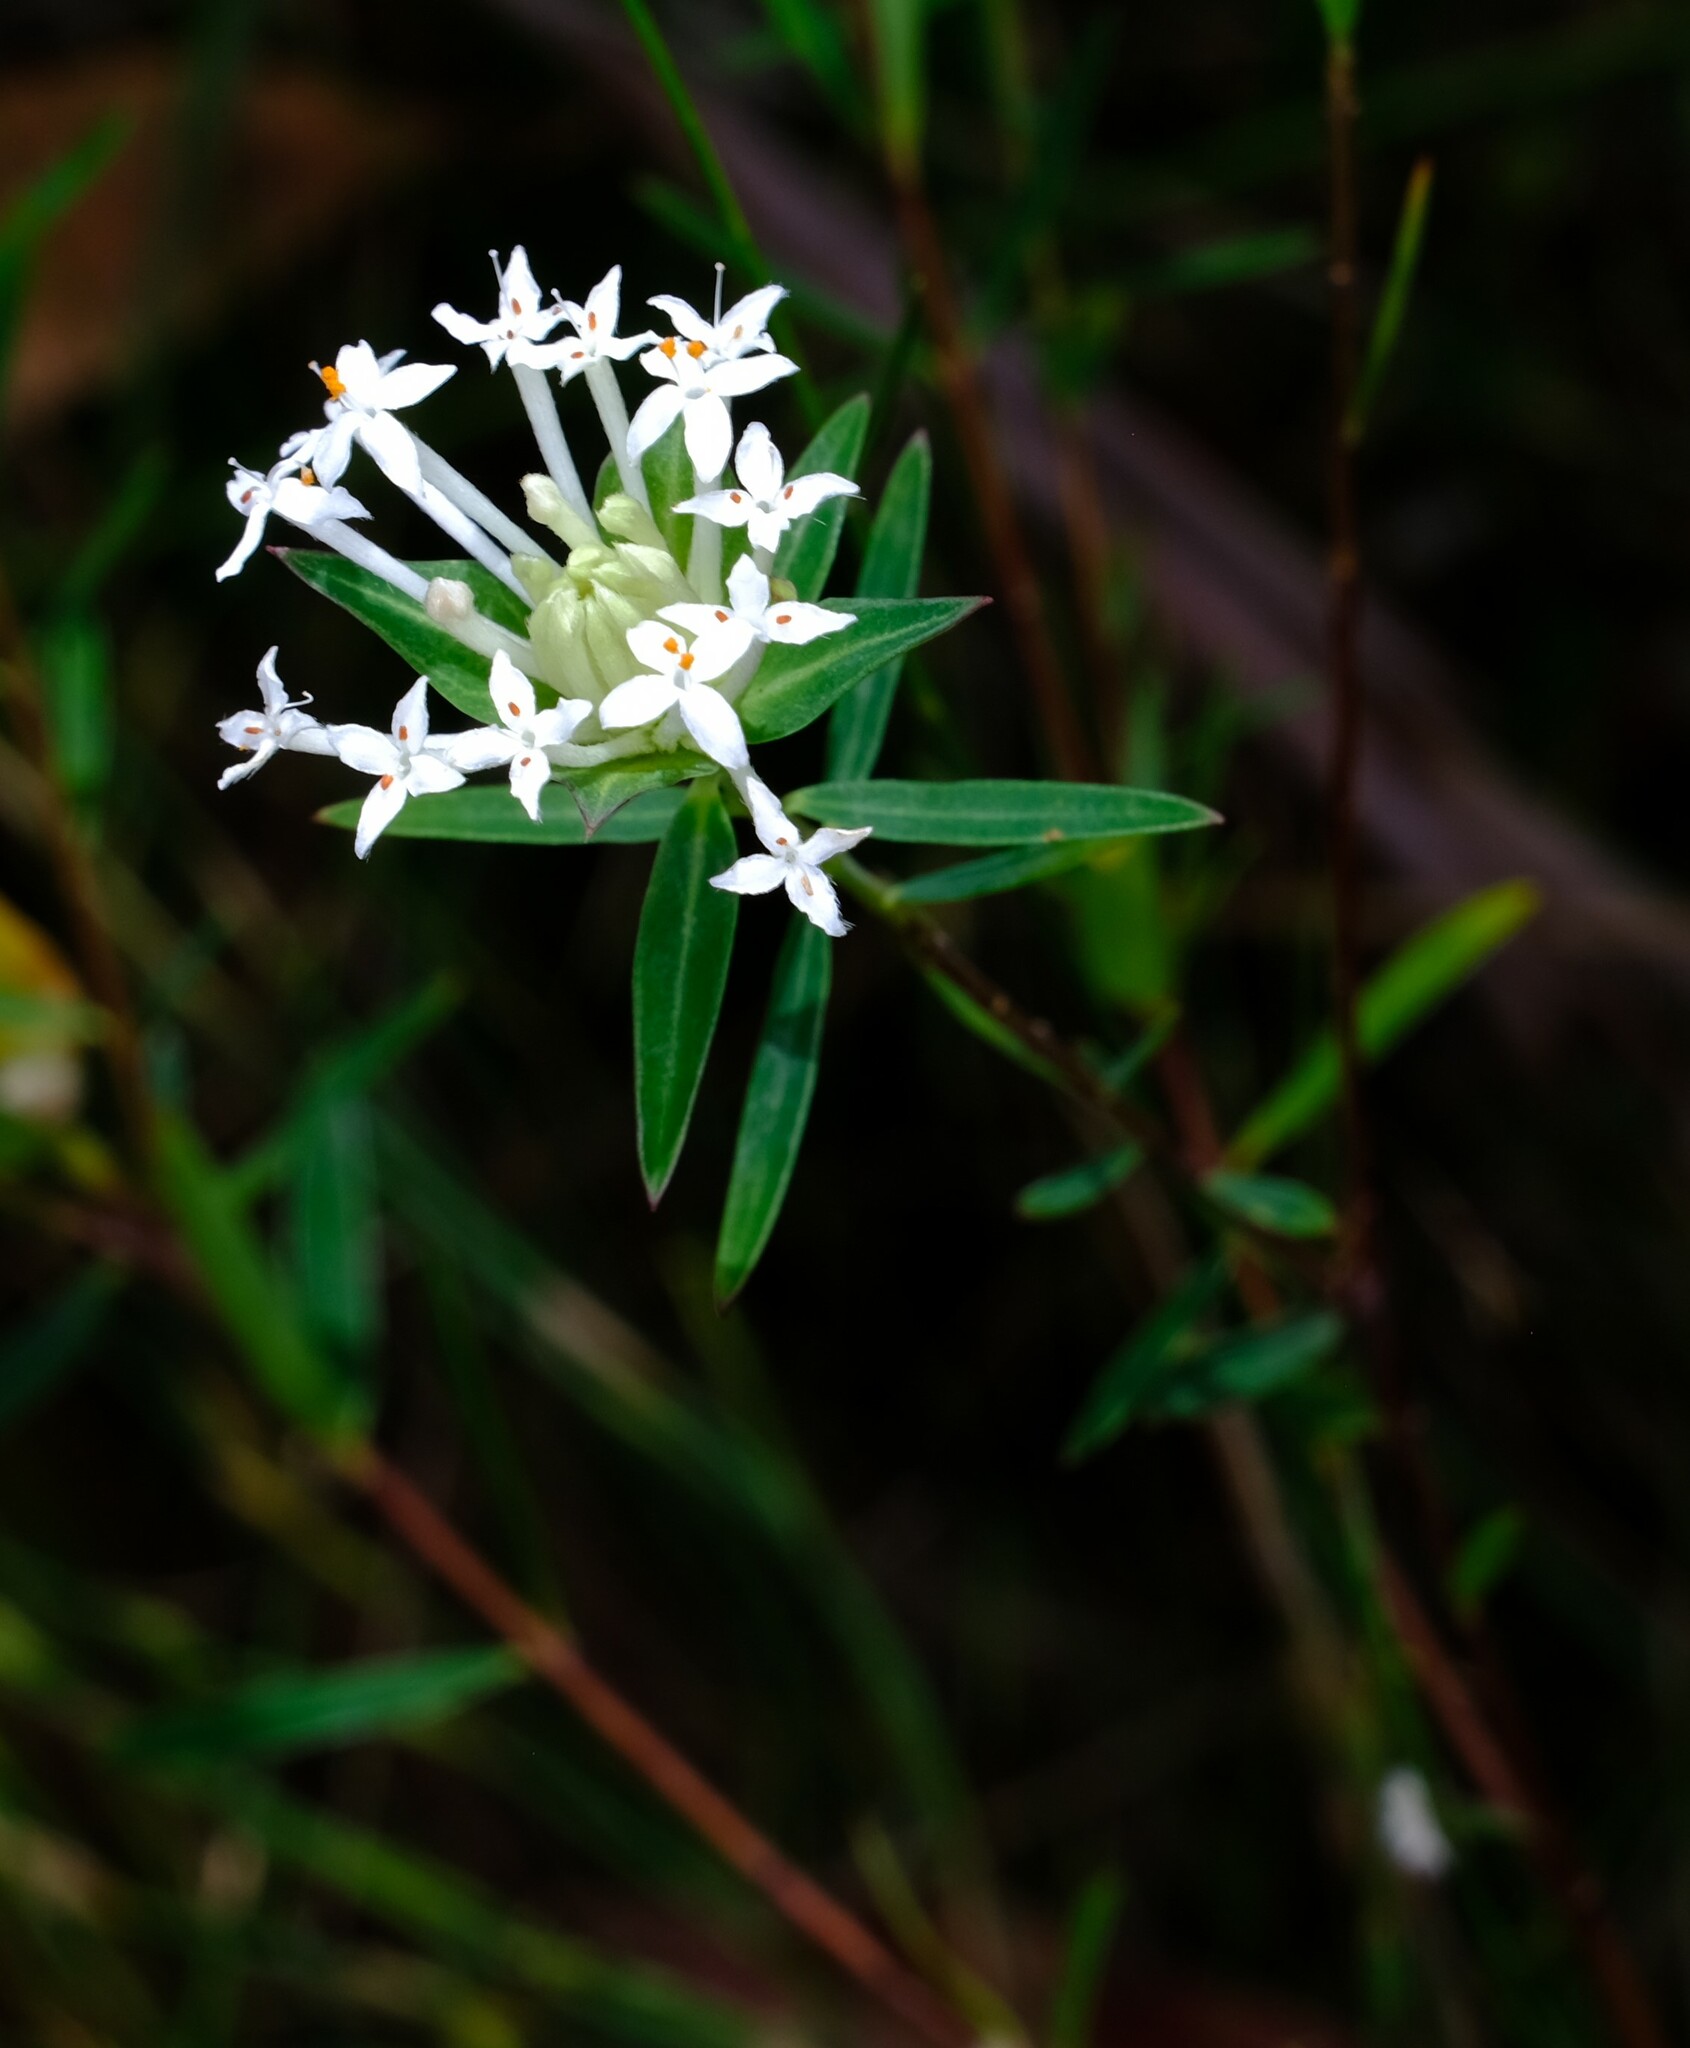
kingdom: Plantae
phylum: Tracheophyta
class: Magnoliopsida
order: Malvales
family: Thymelaeaceae
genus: Pimelea
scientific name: Pimelea linifolia
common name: Queen-of-the-bush
